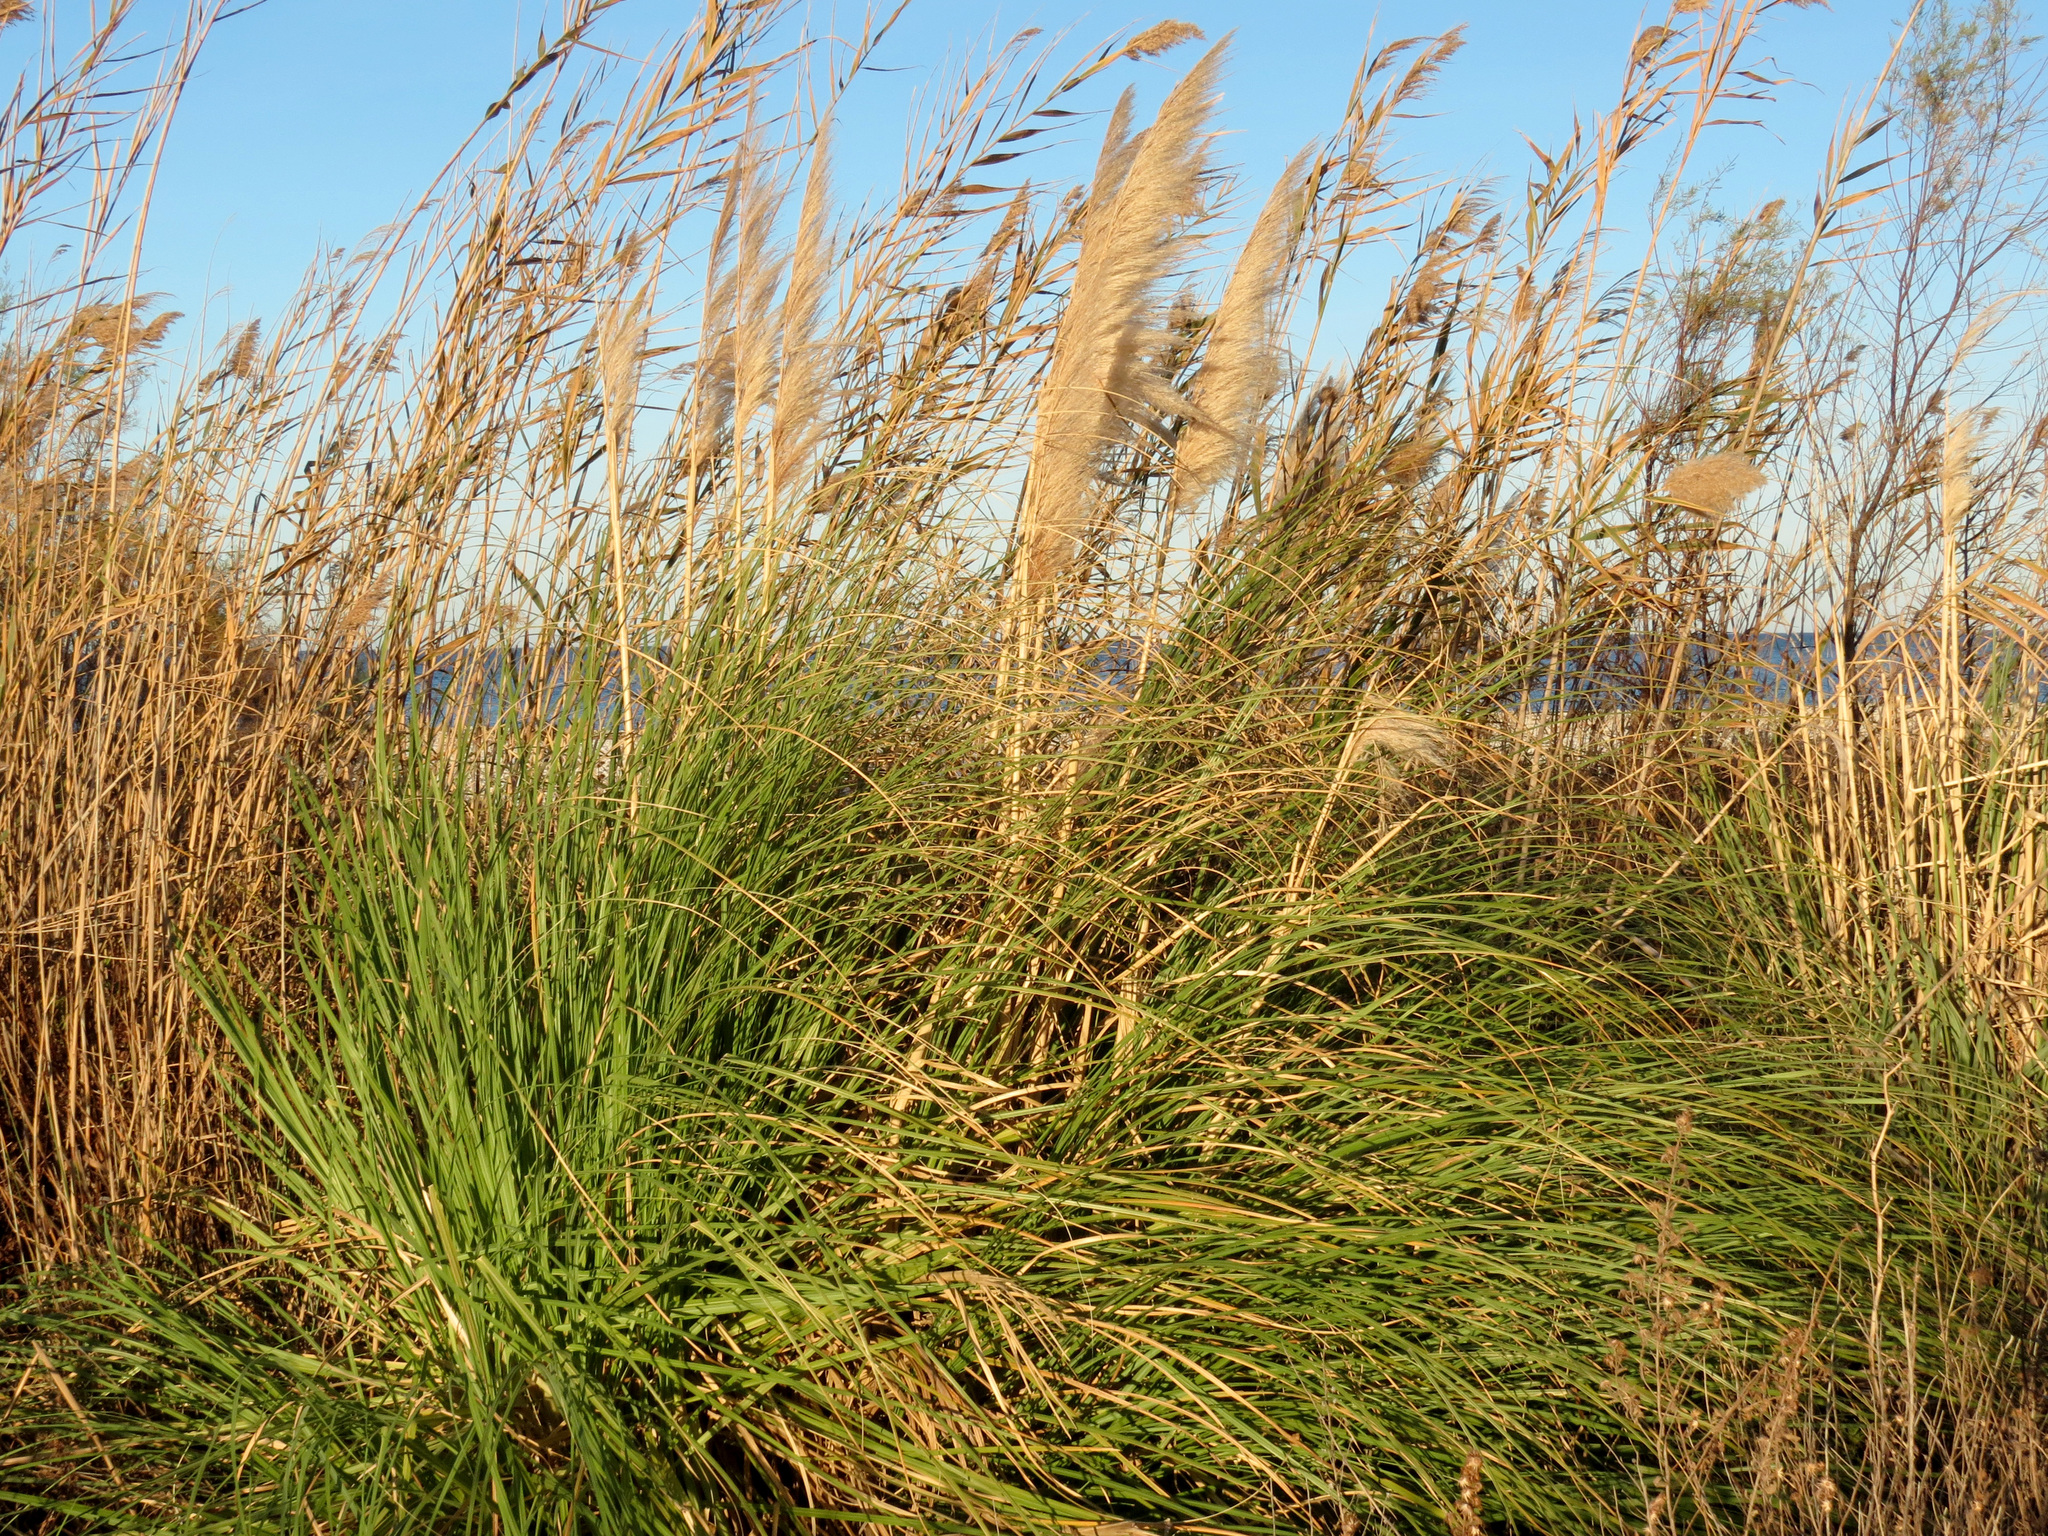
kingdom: Plantae
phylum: Tracheophyta
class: Liliopsida
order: Poales
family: Poaceae
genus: Cortaderia
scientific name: Cortaderia selloana
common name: Uruguayan pampas grass
